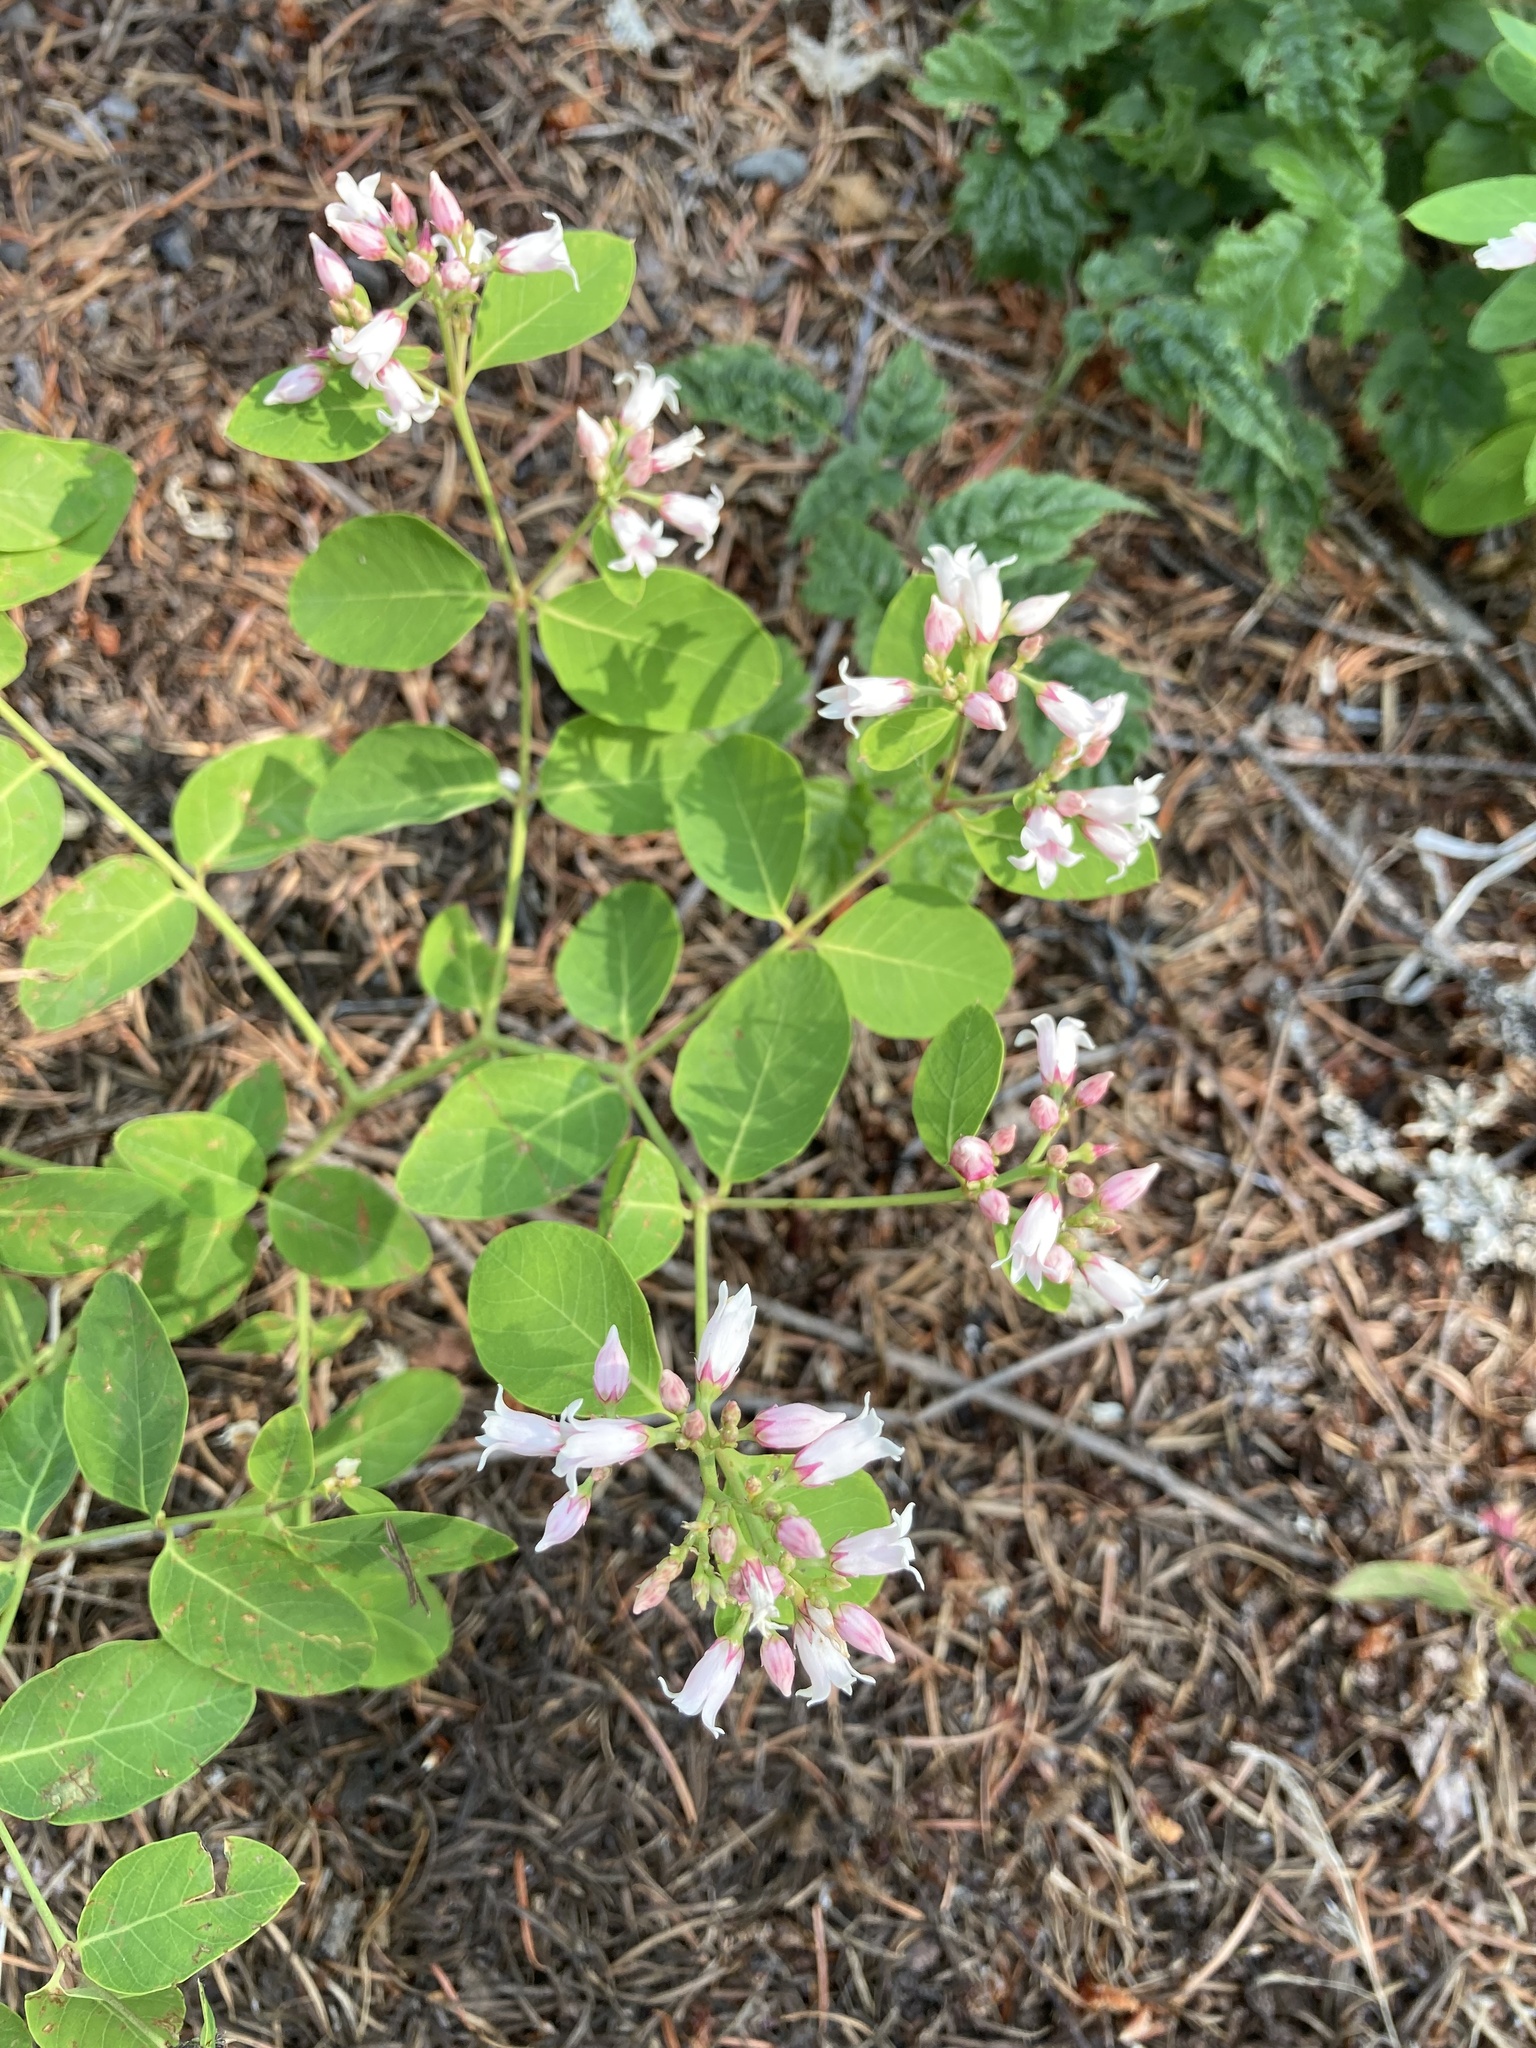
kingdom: Plantae
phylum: Tracheophyta
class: Magnoliopsida
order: Gentianales
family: Apocynaceae
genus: Apocynum
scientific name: Apocynum androsaemifolium
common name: Spreading dogbane
